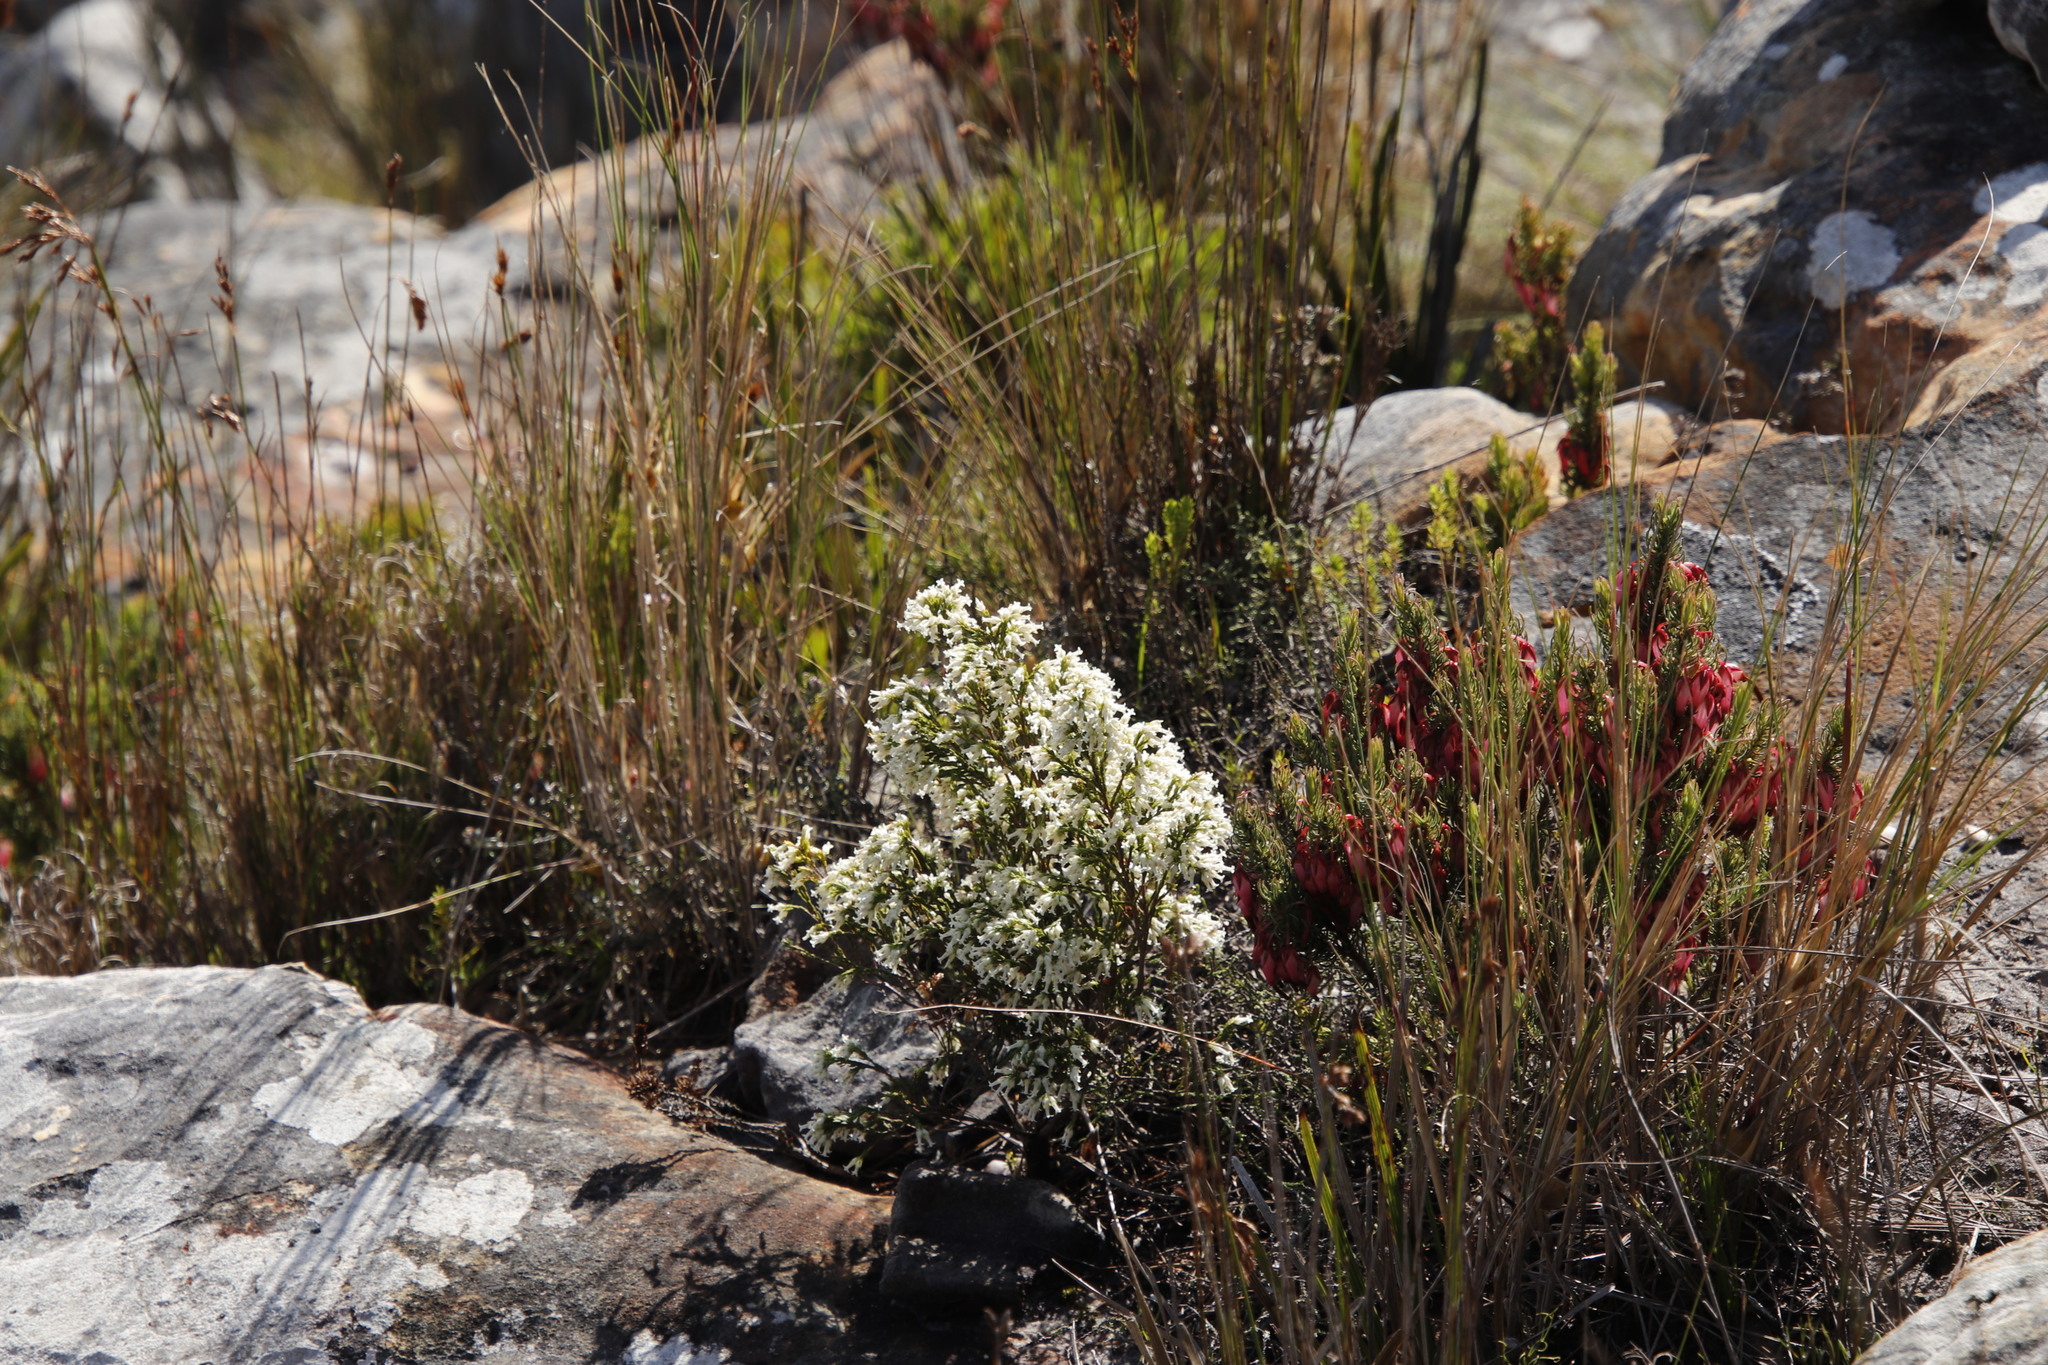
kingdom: Plantae
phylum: Tracheophyta
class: Magnoliopsida
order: Ericales
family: Ericaceae
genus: Erica
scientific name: Erica lutea
